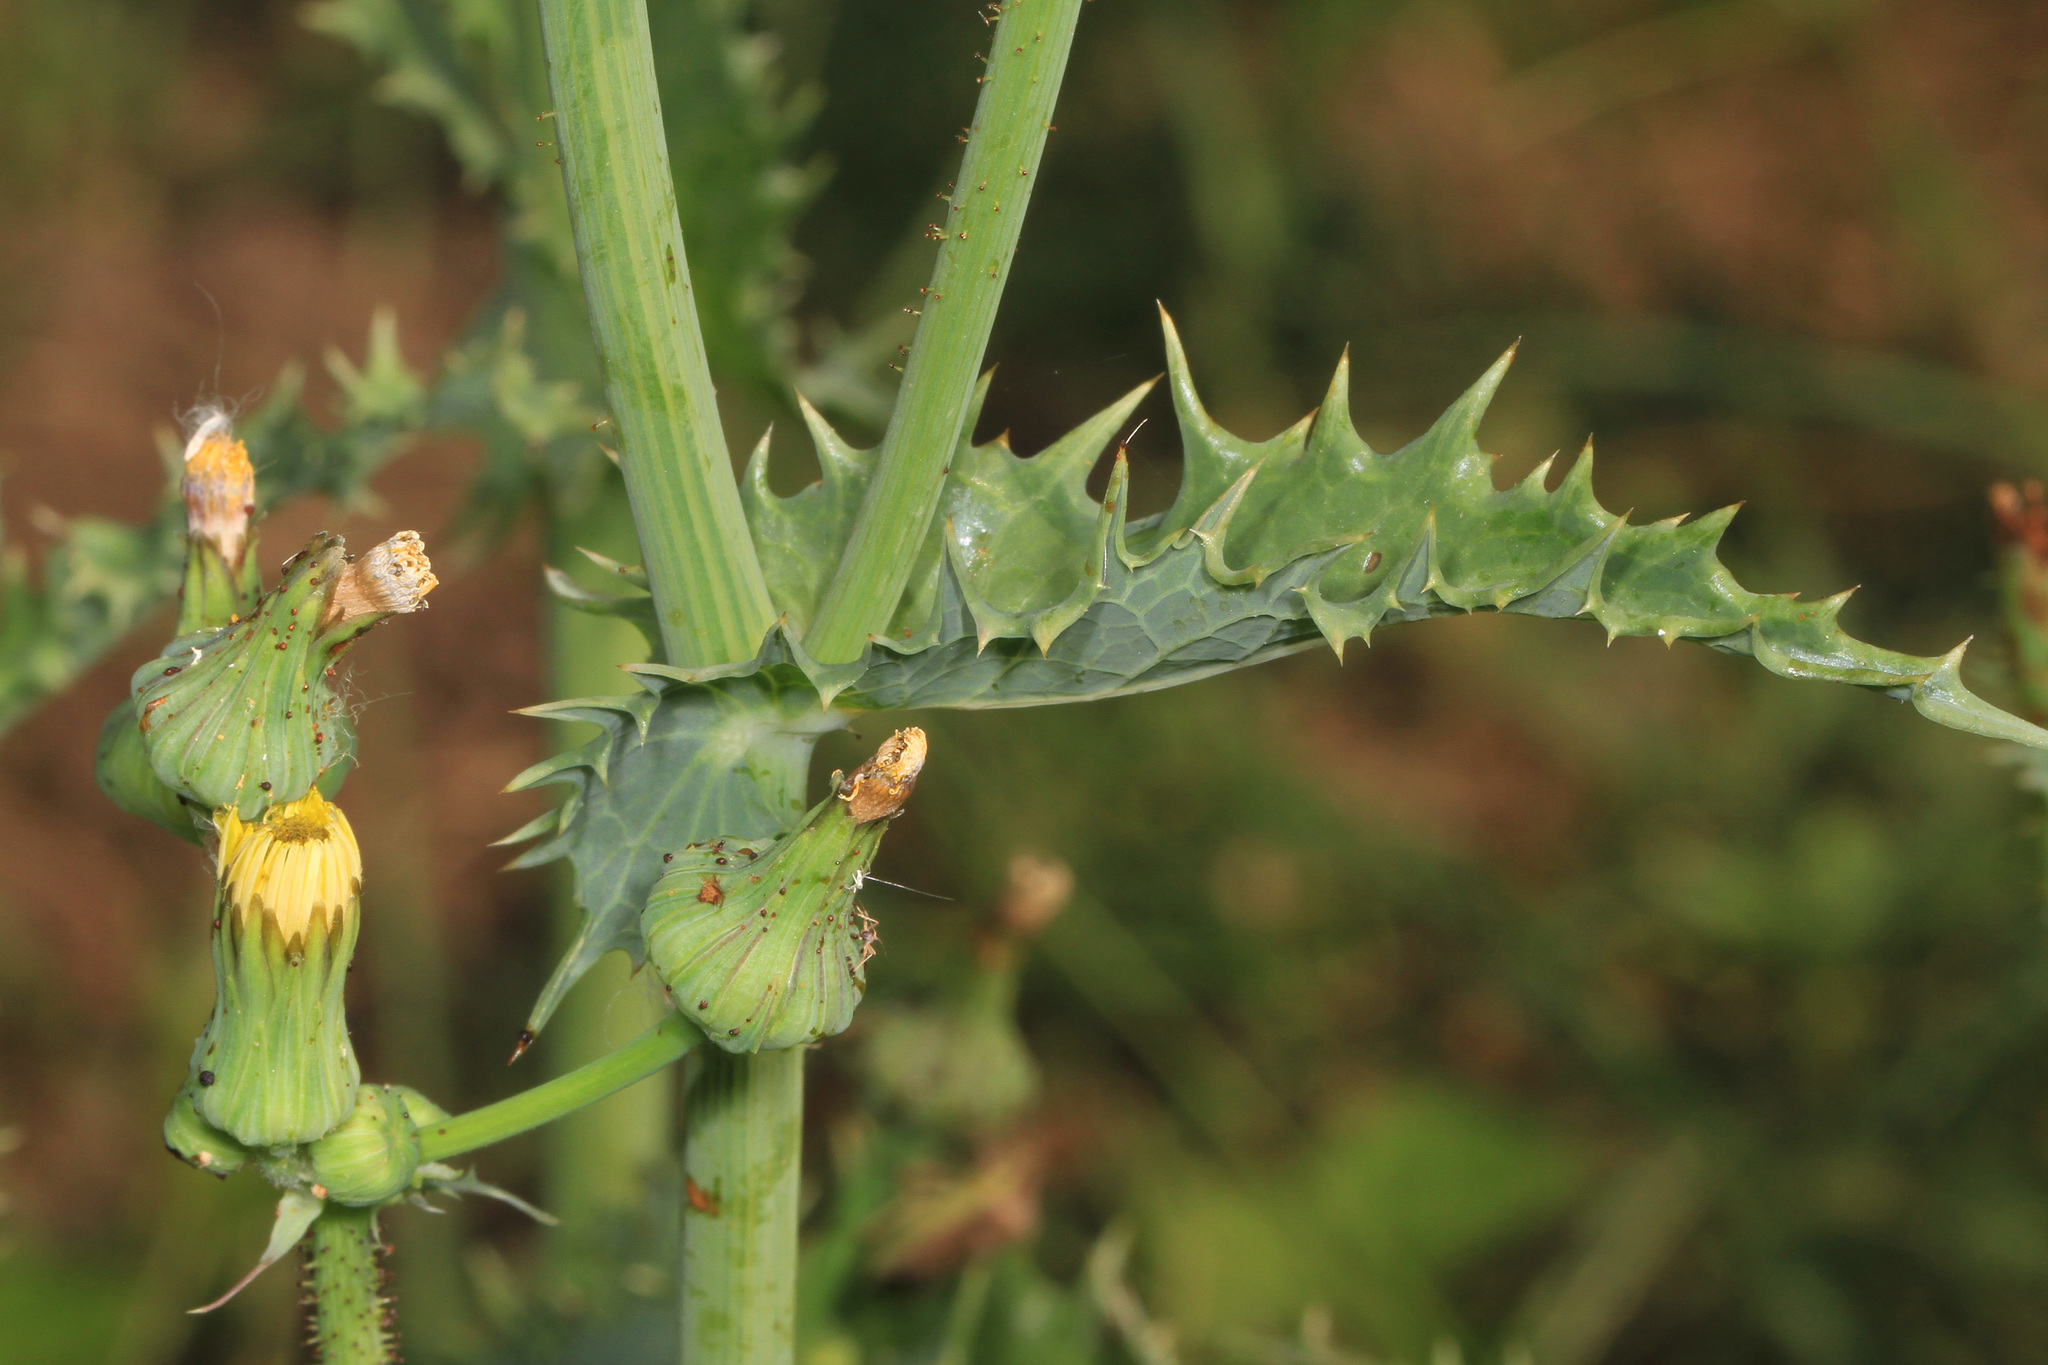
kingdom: Plantae
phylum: Tracheophyta
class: Magnoliopsida
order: Asterales
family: Asteraceae
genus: Sonchus
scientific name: Sonchus asper
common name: Prickly sow-thistle
